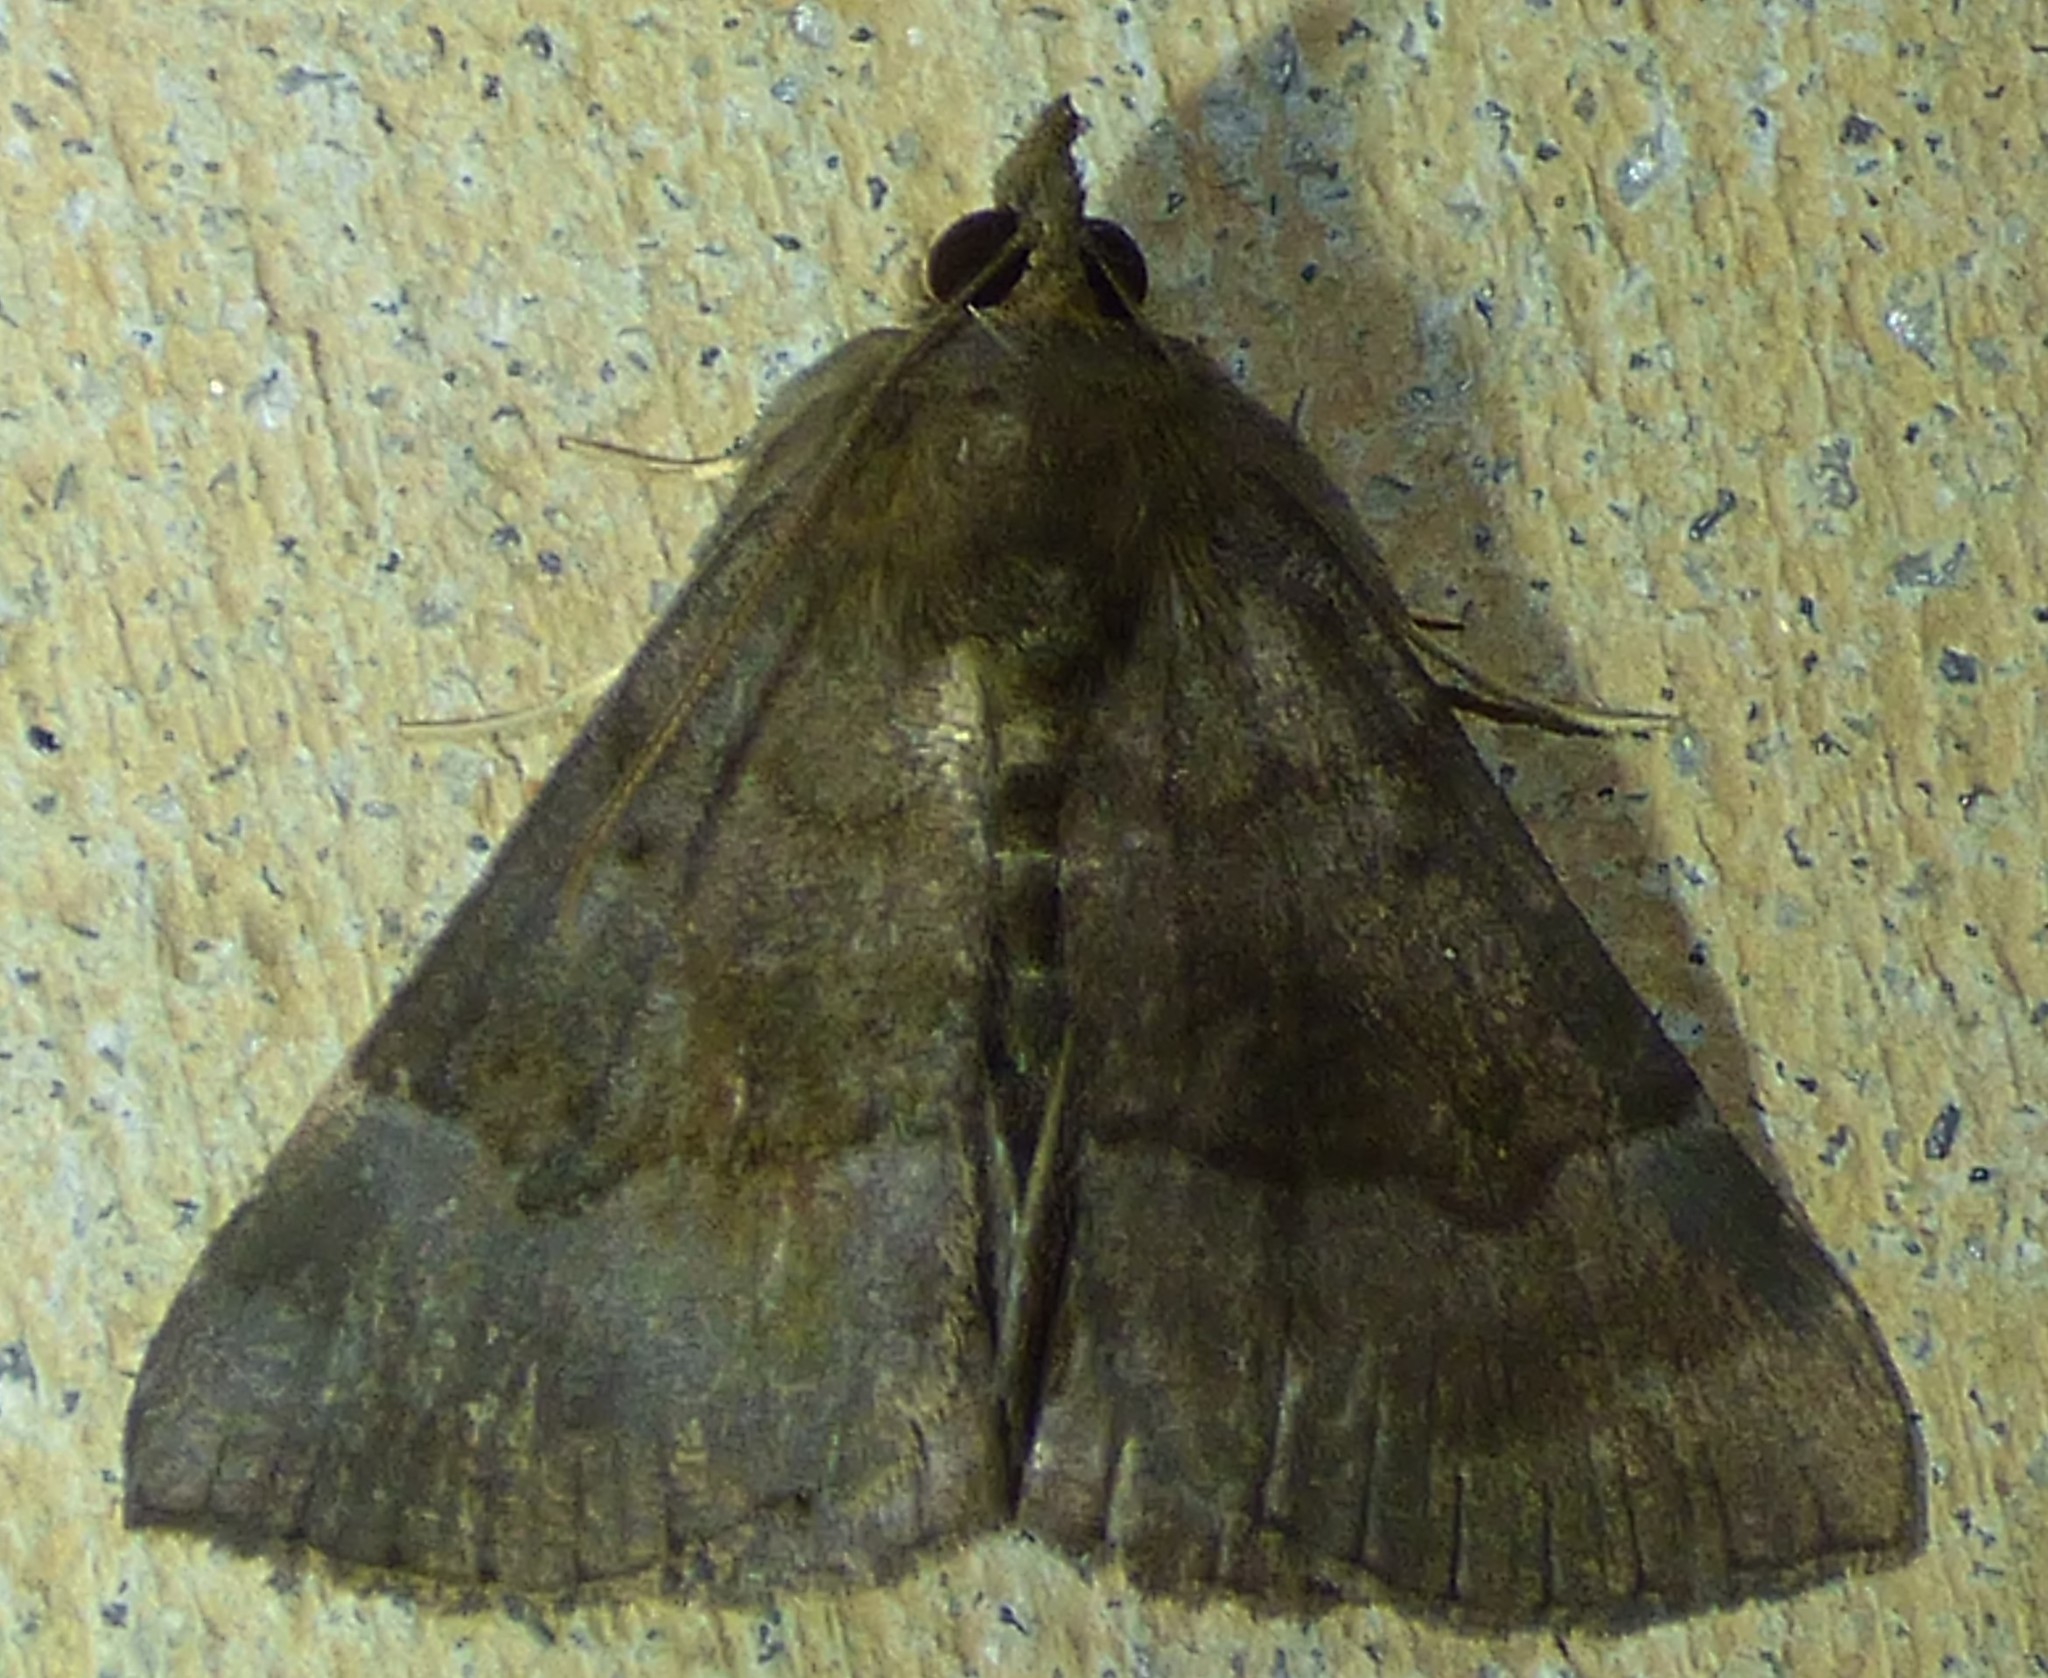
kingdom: Animalia
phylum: Arthropoda
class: Insecta
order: Lepidoptera
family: Erebidae
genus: Hypena
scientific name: Hypena madefactalis
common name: Gray-edged snout
